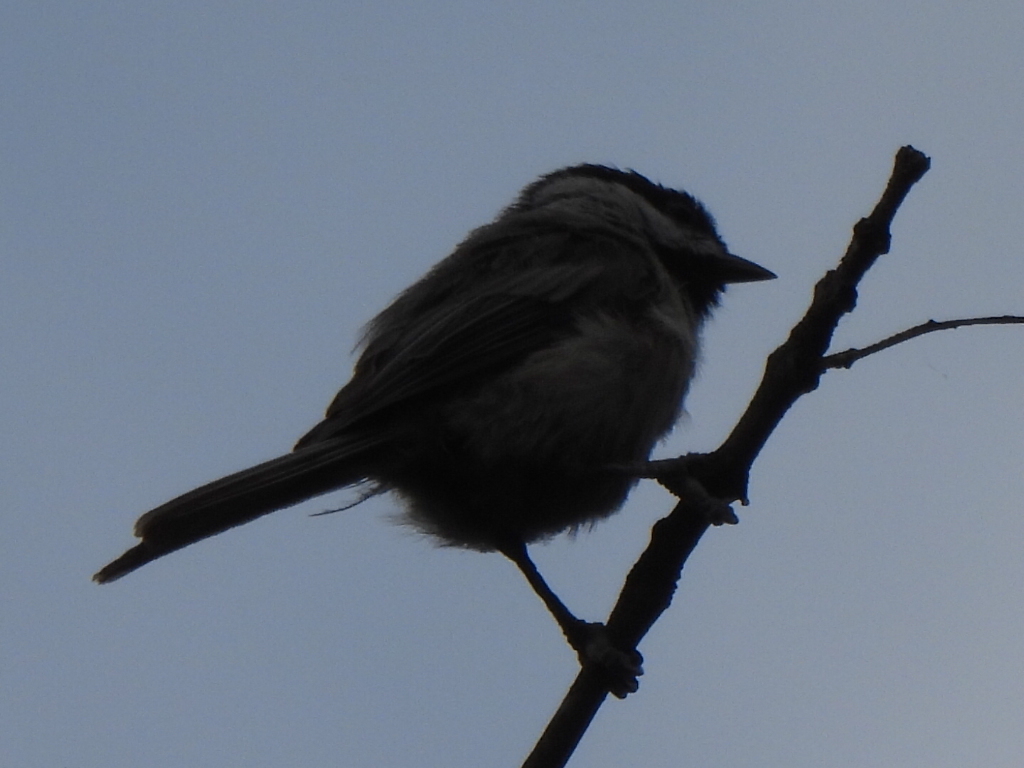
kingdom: Animalia
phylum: Chordata
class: Aves
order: Passeriformes
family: Paridae
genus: Poecile
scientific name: Poecile carolinensis
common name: Carolina chickadee
